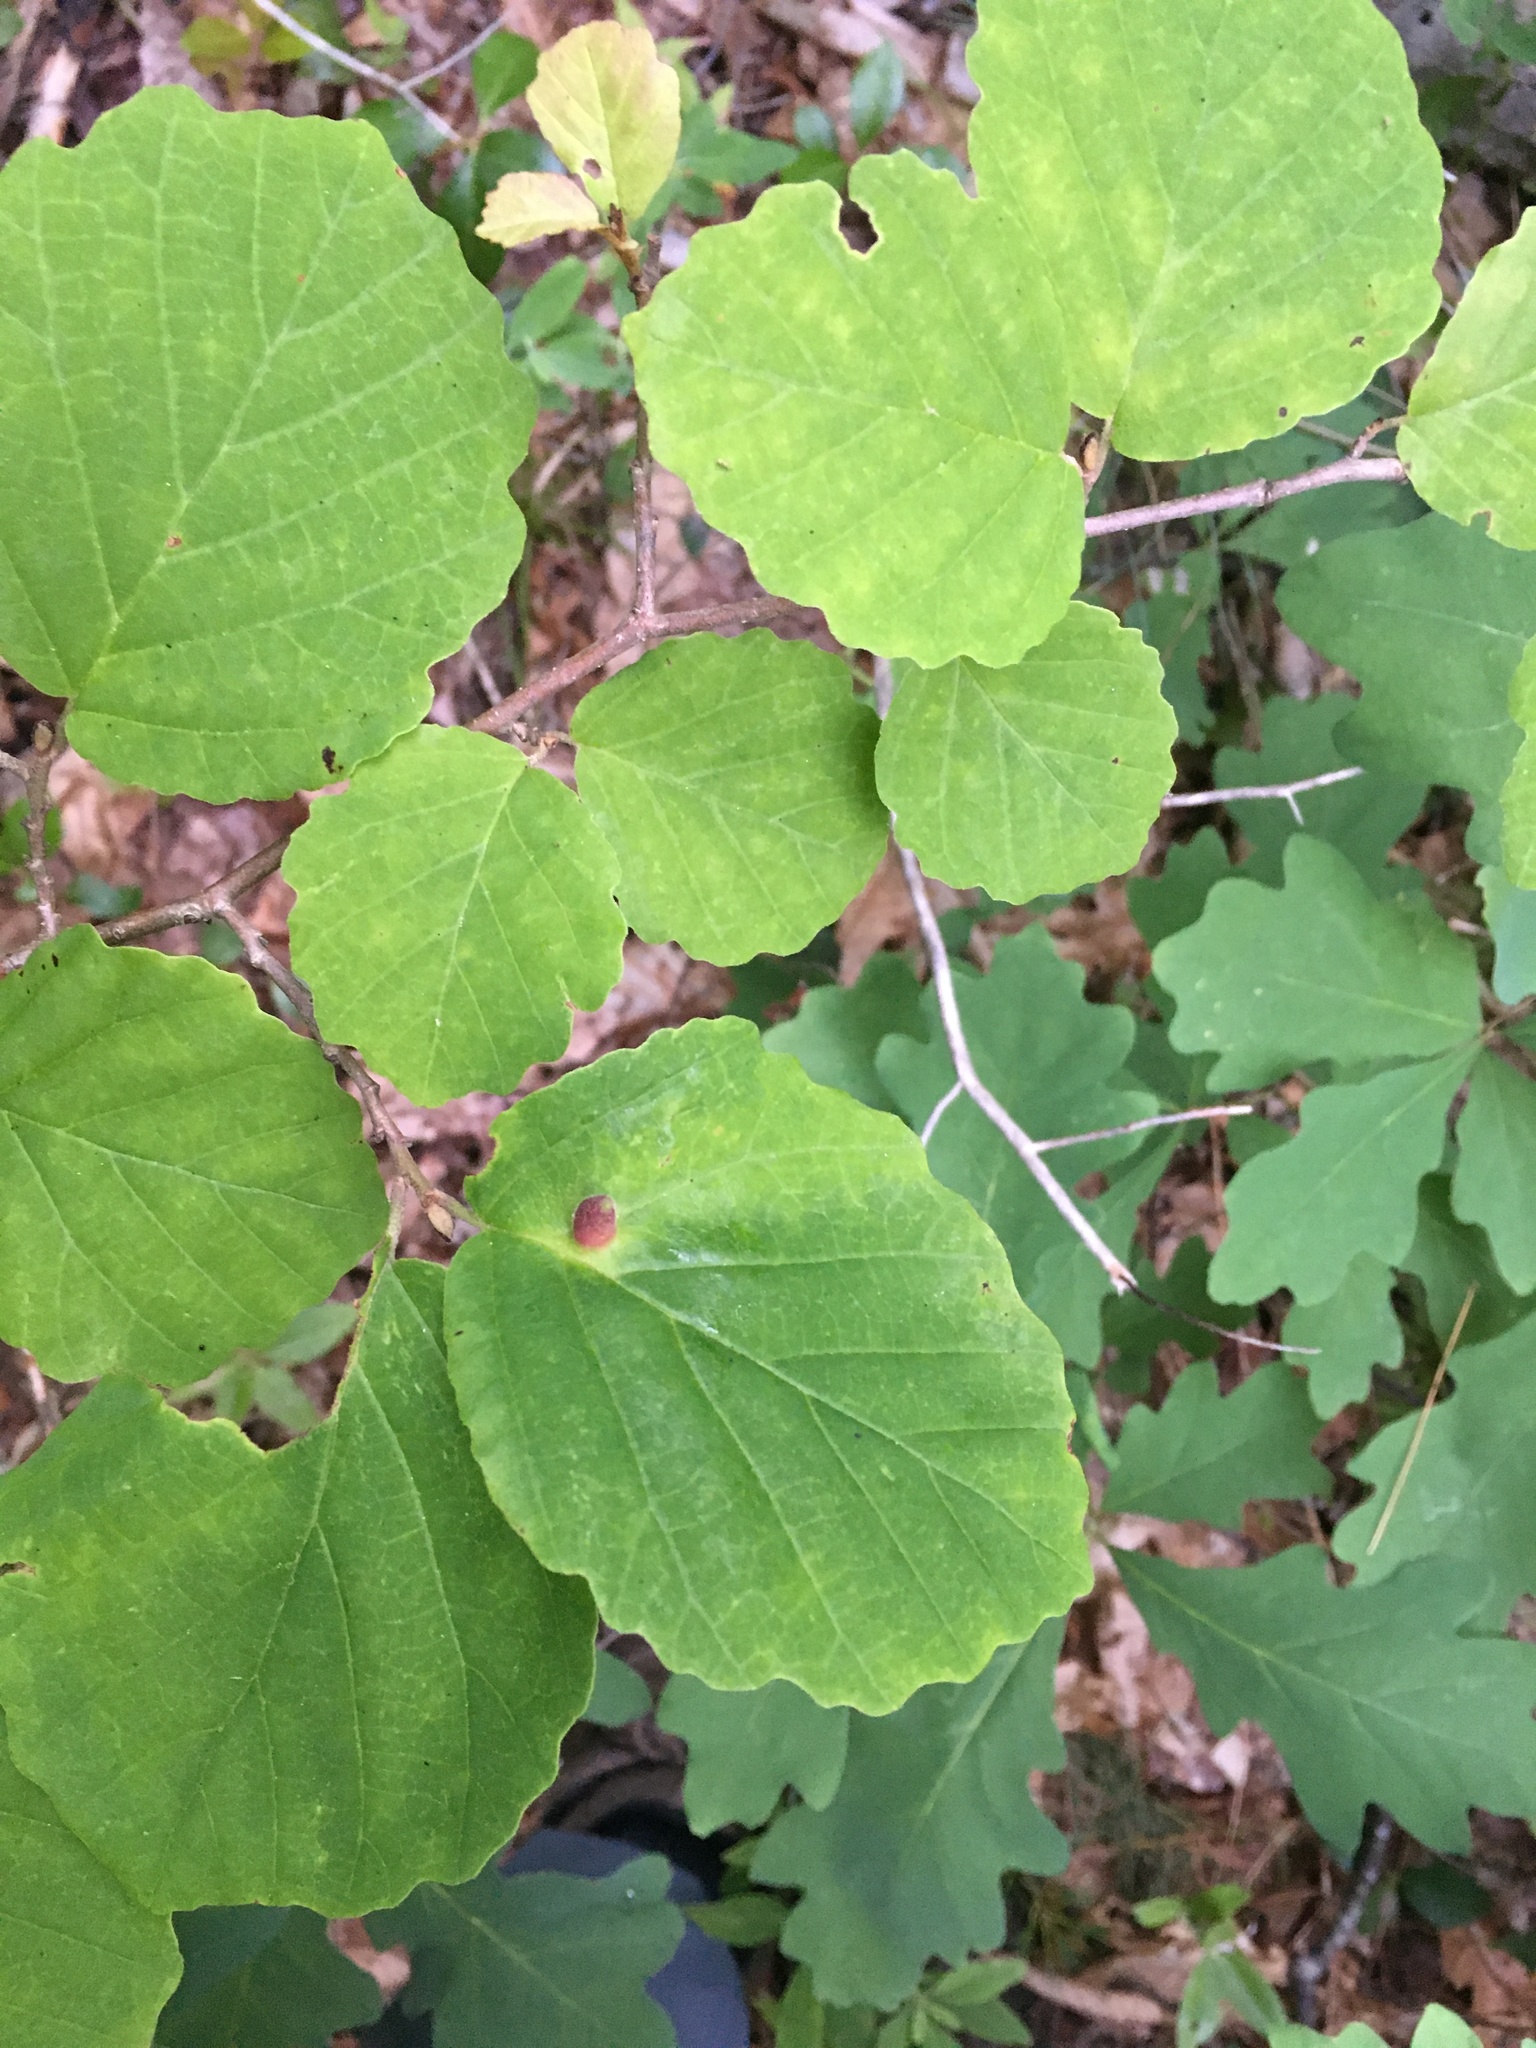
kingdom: Animalia
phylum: Arthropoda
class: Insecta
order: Hemiptera
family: Aphididae
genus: Hormaphis
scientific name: Hormaphis hamamelidis
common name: Witch-hazel cone gall aphid
